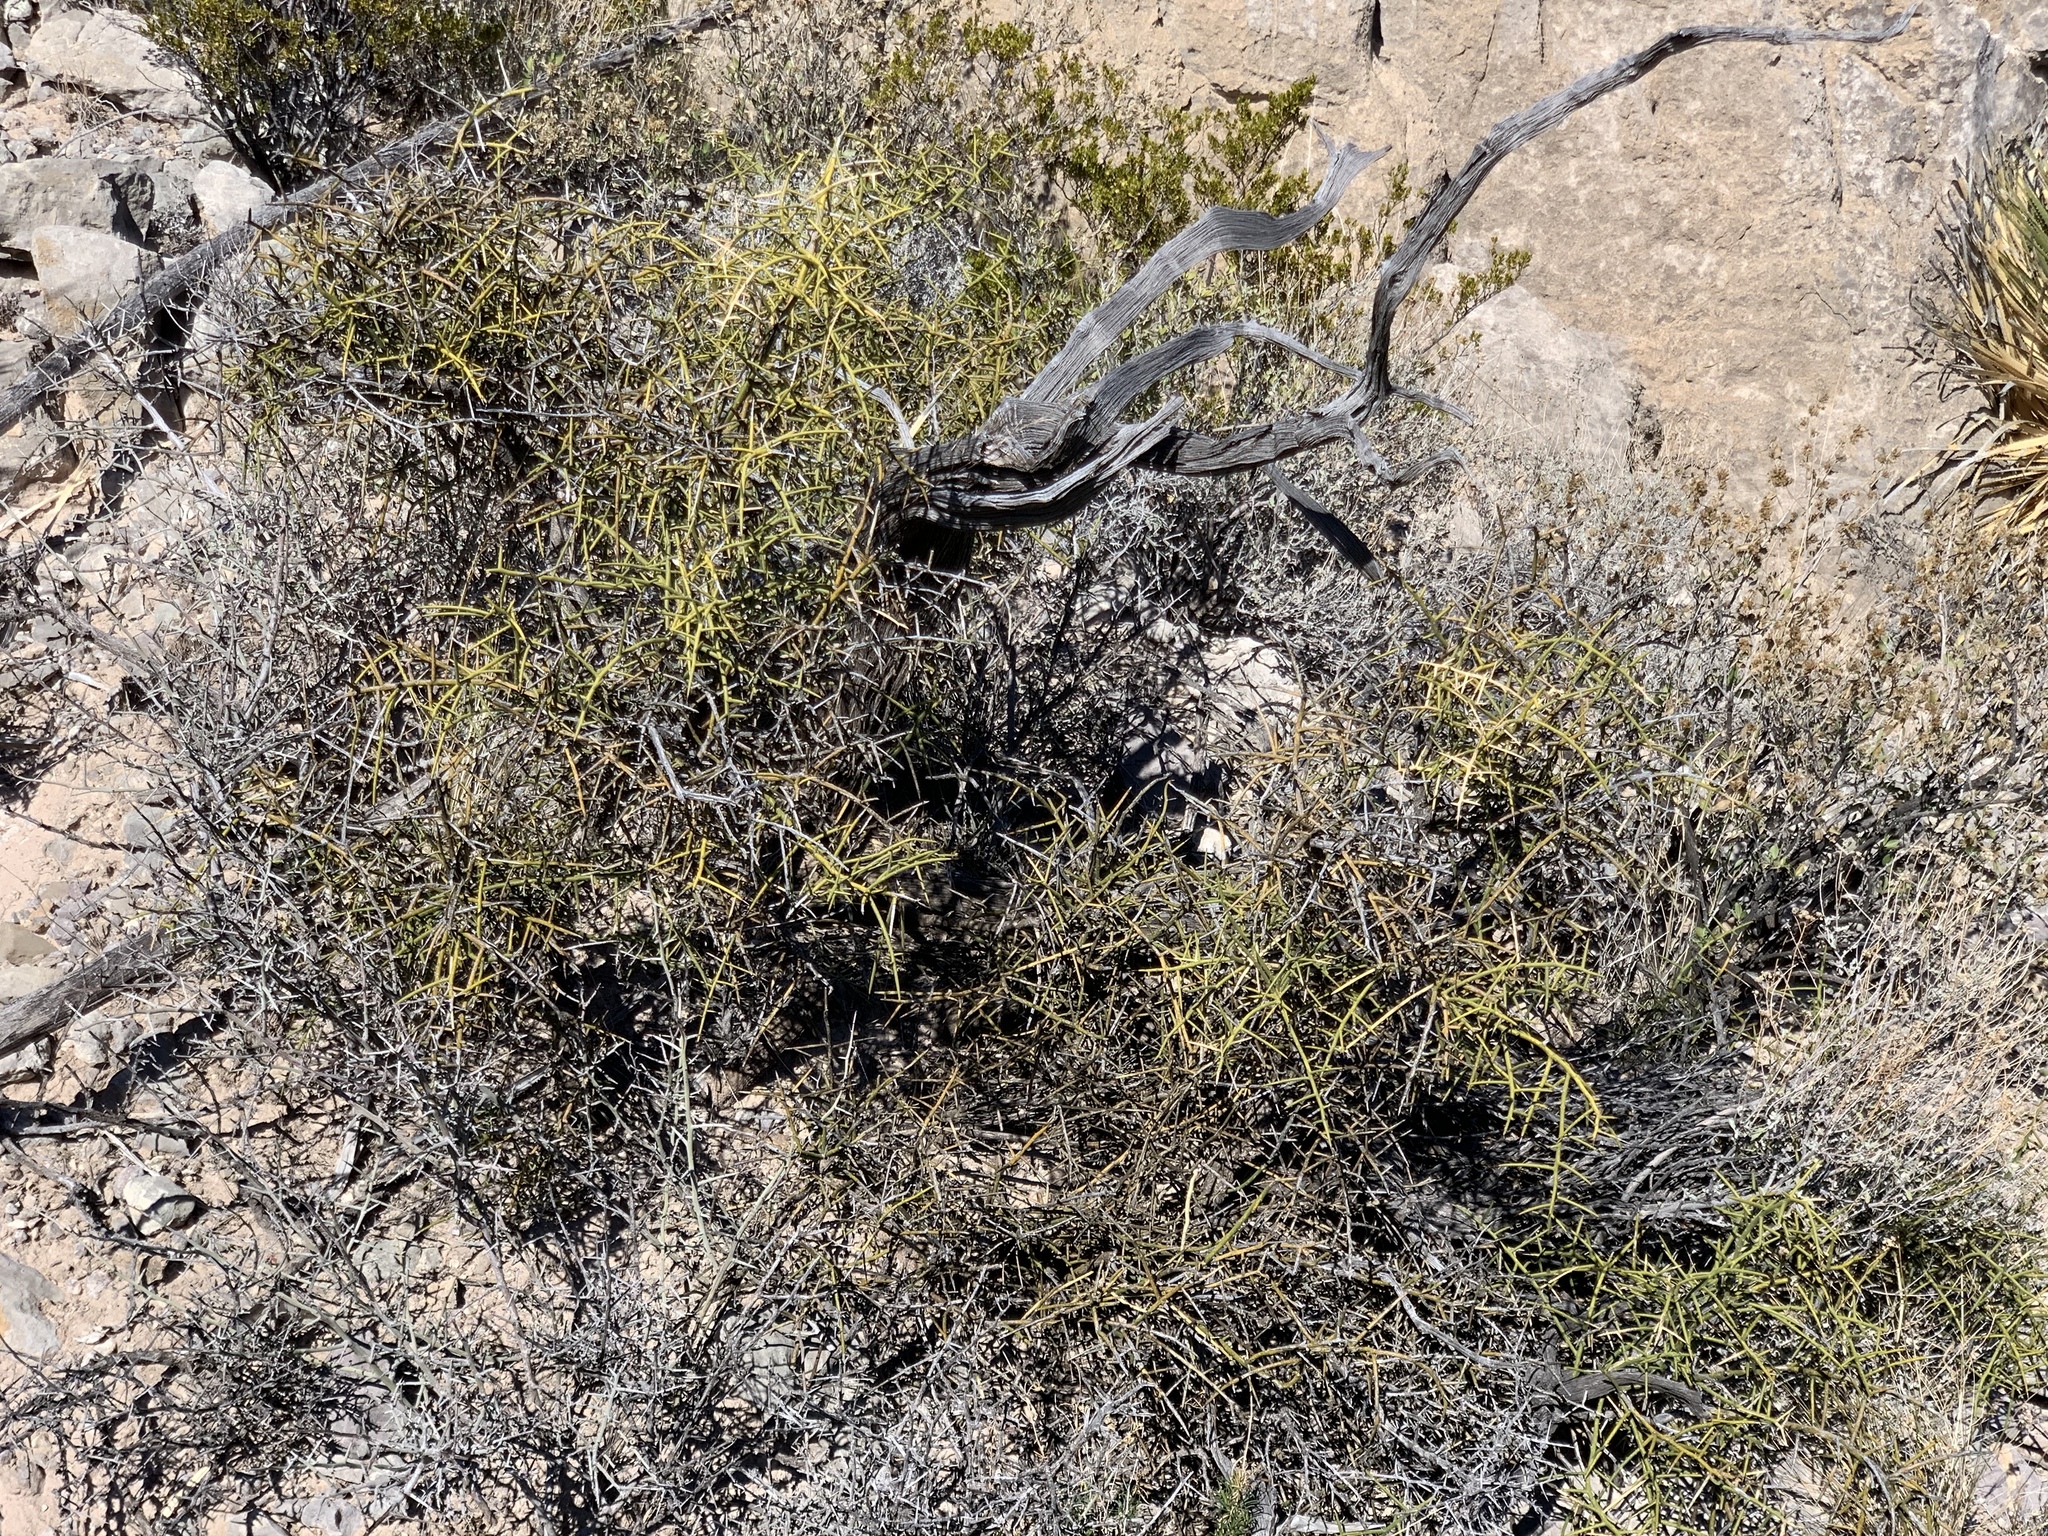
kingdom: Plantae
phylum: Tracheophyta
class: Magnoliopsida
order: Brassicales
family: Koeberliniaceae
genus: Koeberlinia
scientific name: Koeberlinia spinosa
